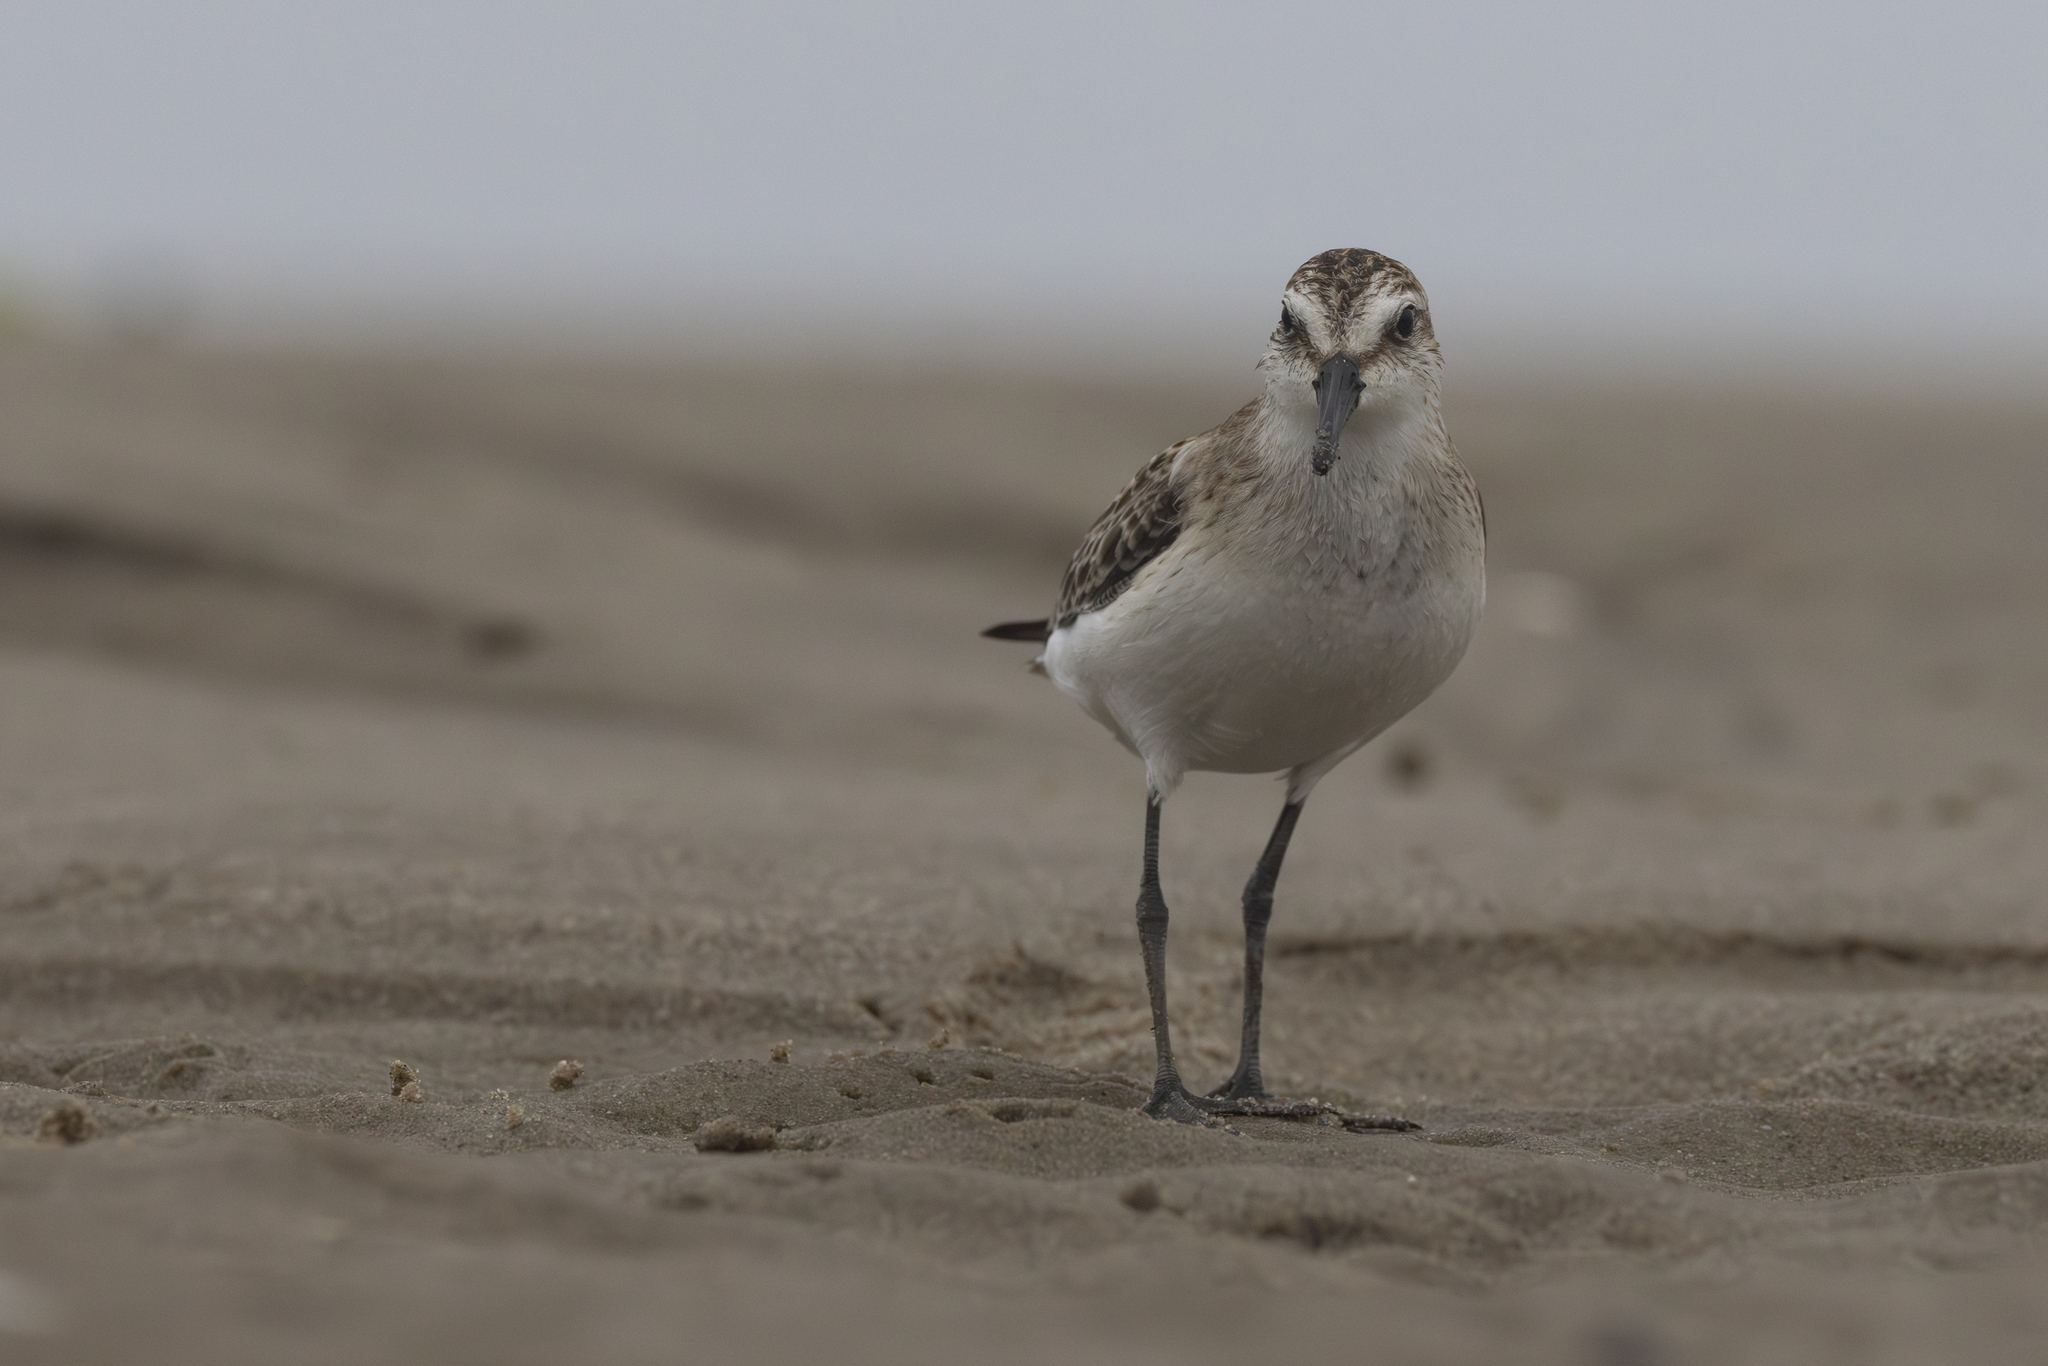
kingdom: Animalia
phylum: Chordata
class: Aves
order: Charadriiformes
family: Scolopacidae
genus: Calidris
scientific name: Calidris pusilla
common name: Semipalmated sandpiper
